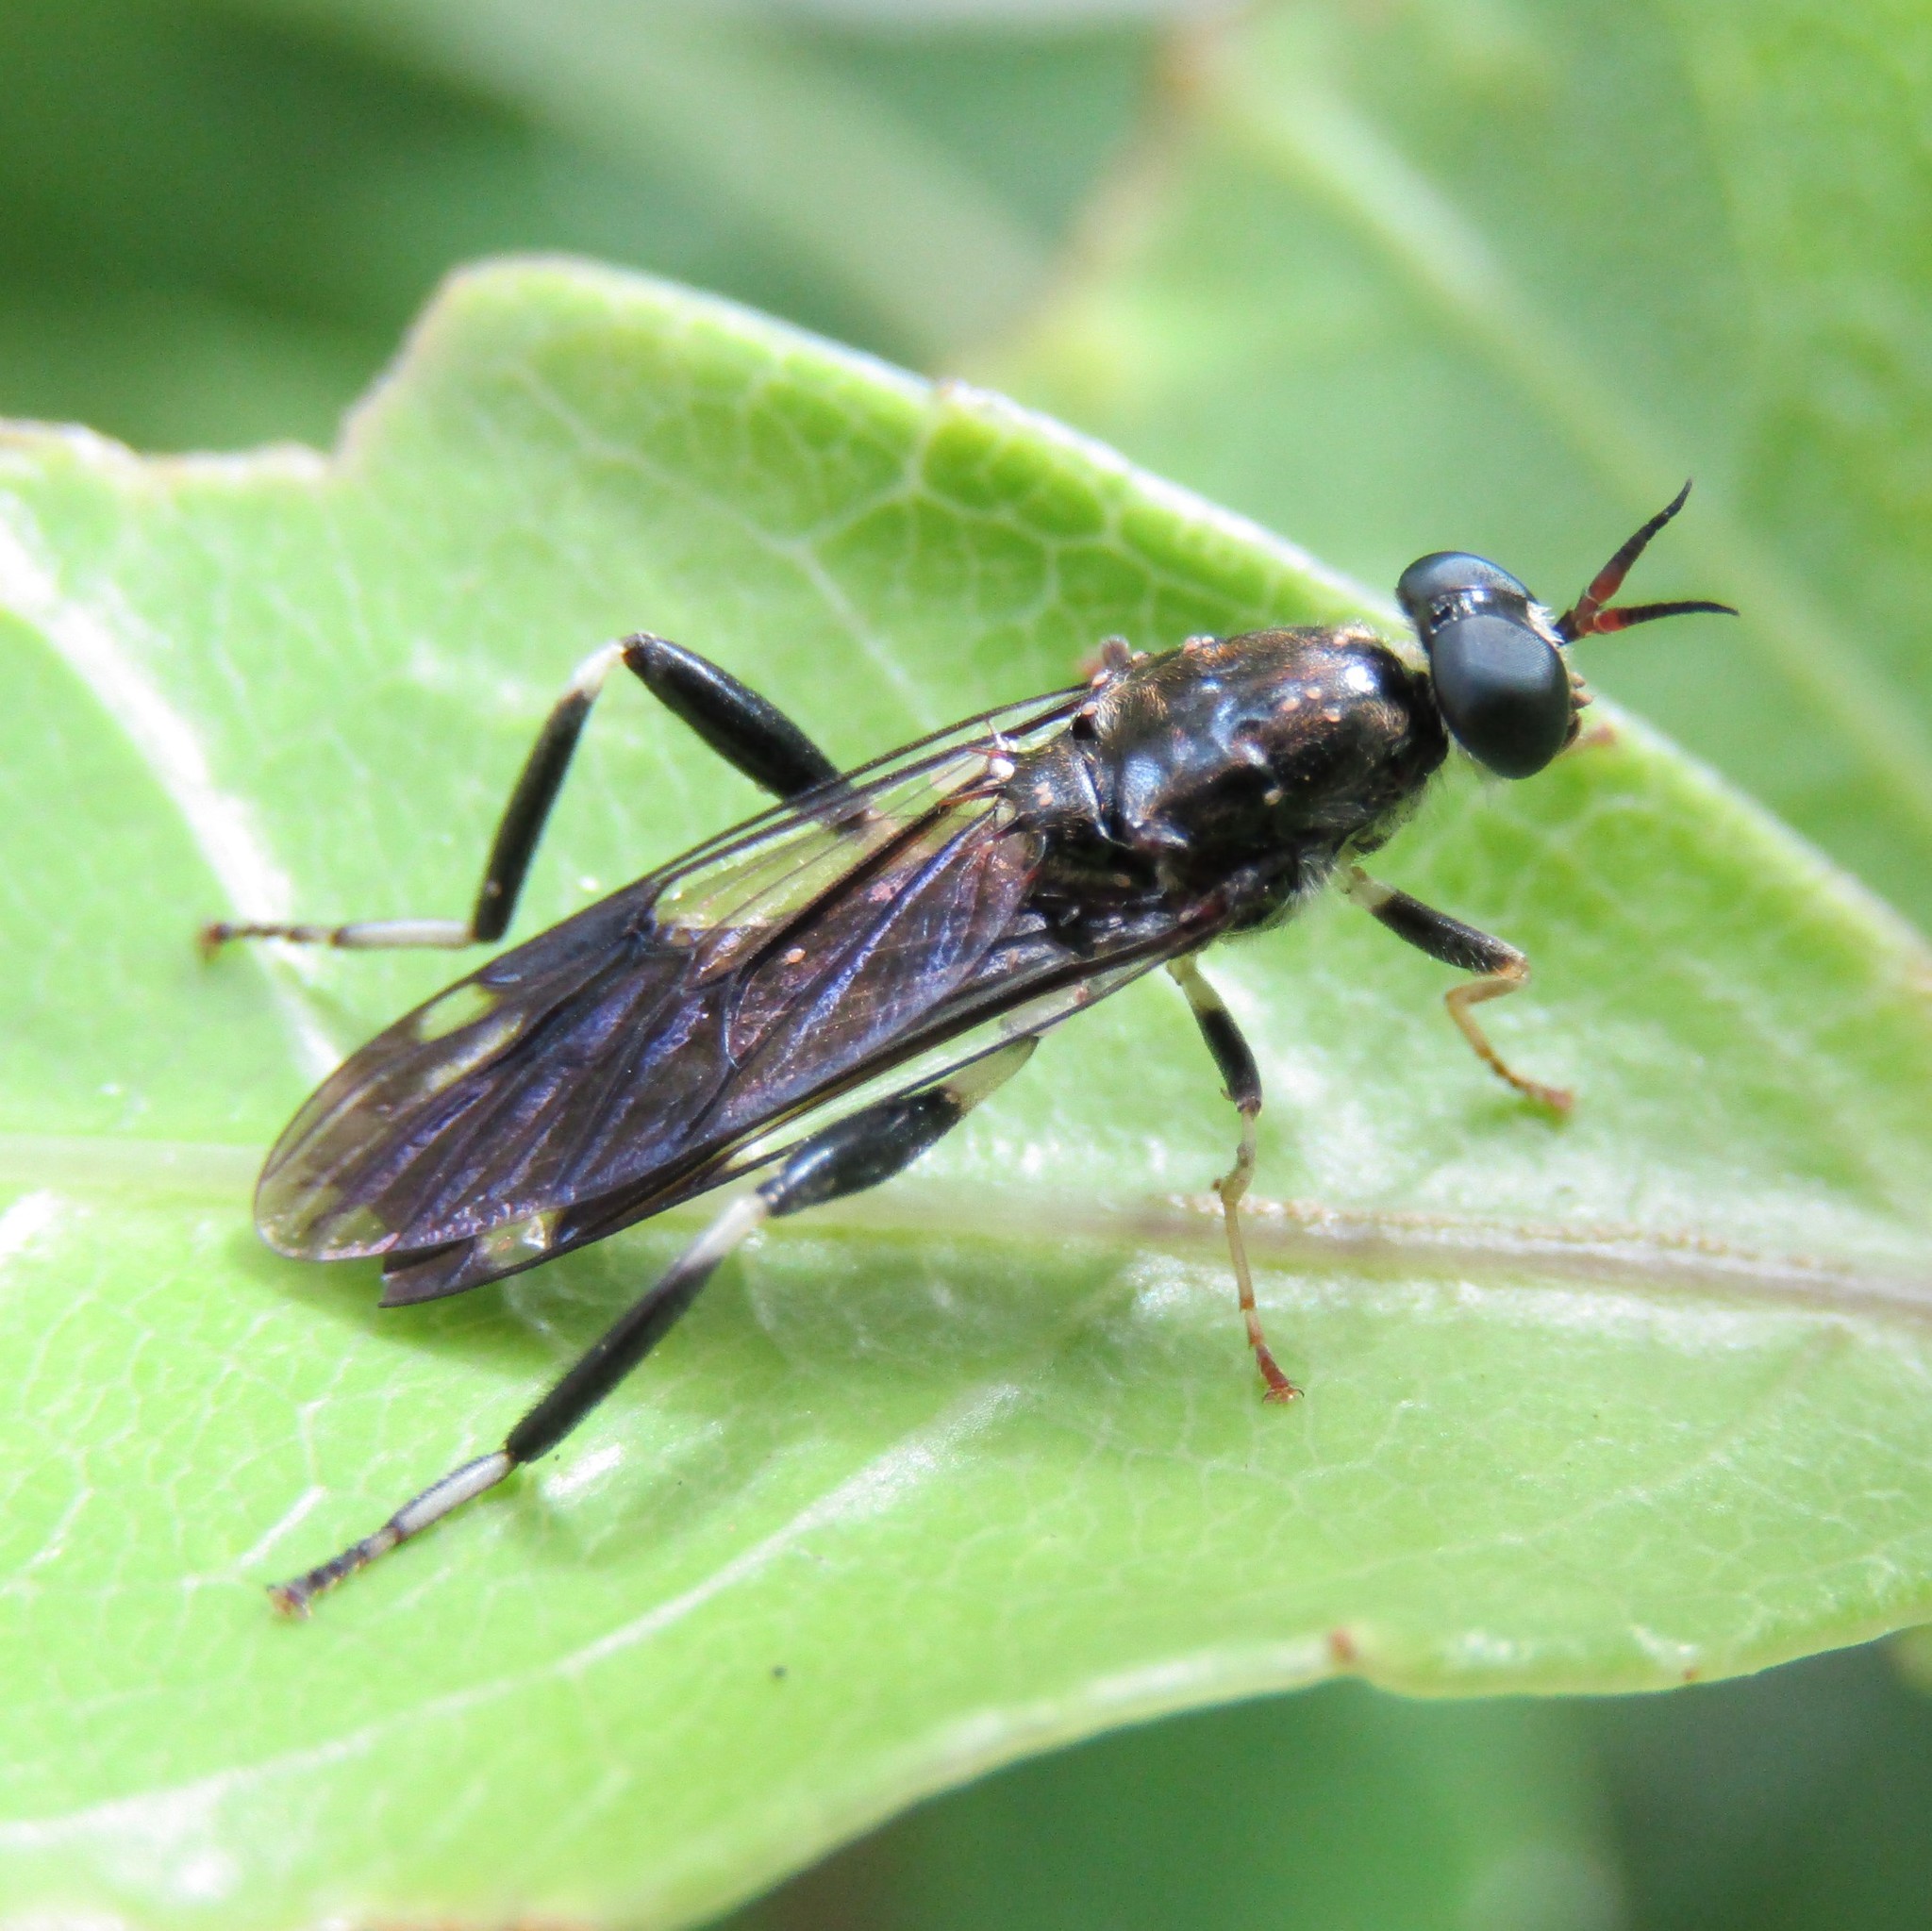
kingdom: Animalia
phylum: Arthropoda
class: Insecta
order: Diptera
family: Stratiomyidae
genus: Exaireta
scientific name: Exaireta spinigera
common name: Blue soldier fly
